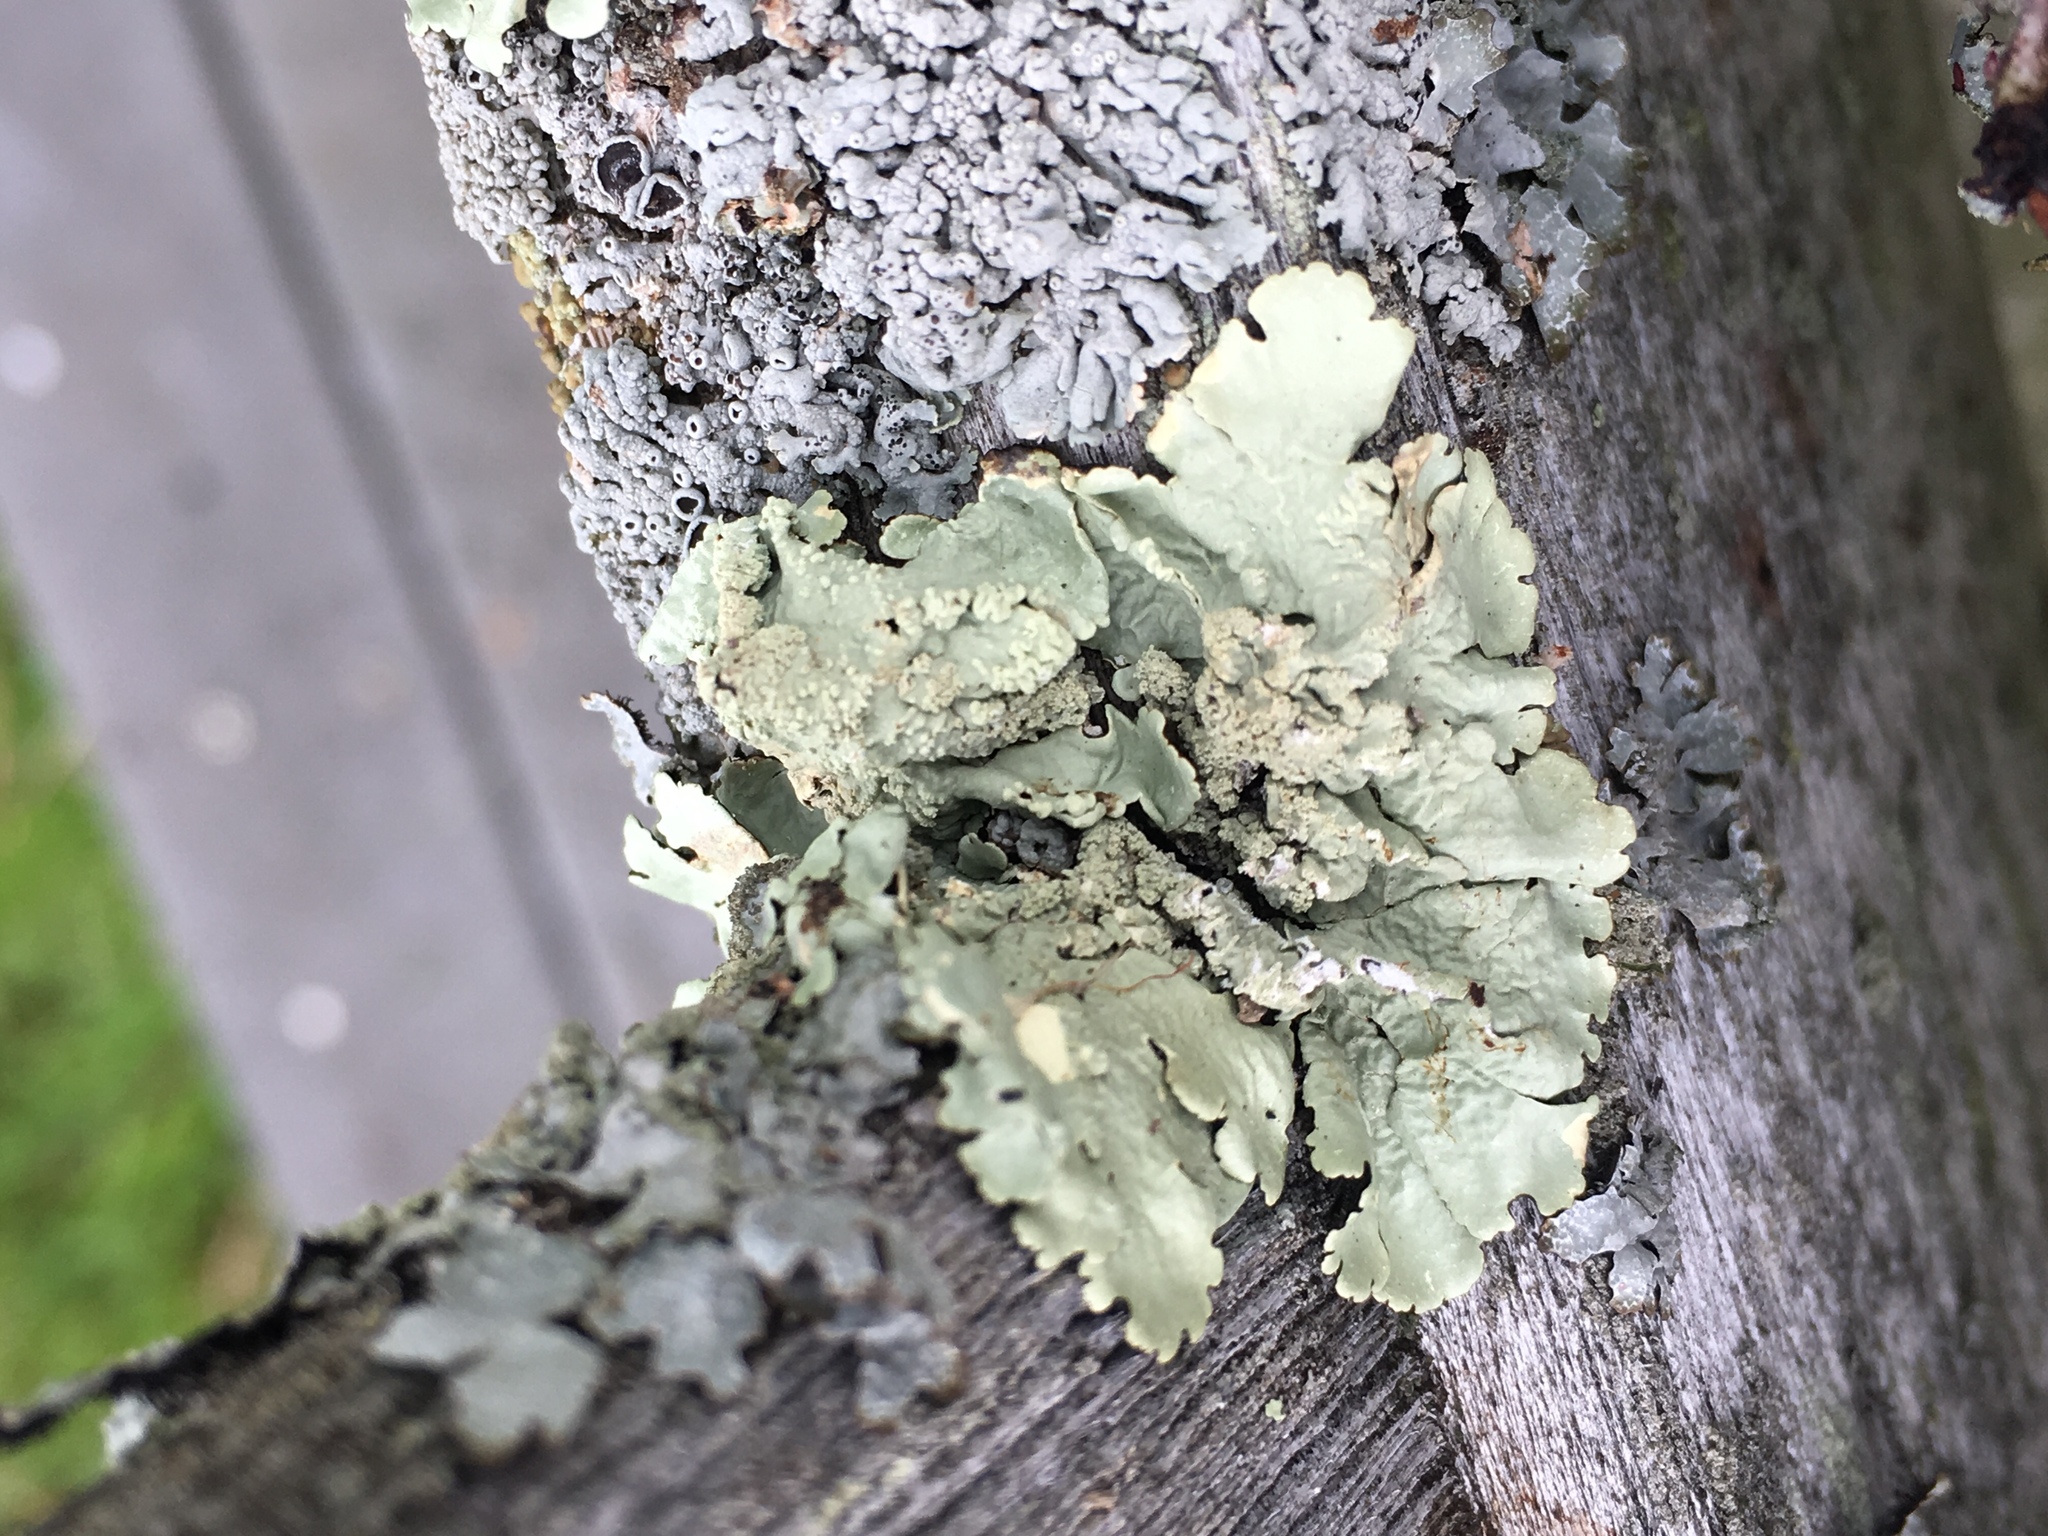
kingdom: Fungi
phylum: Ascomycota
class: Lecanoromycetes
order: Lecanorales
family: Parmeliaceae
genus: Flavoparmelia
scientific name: Flavoparmelia caperata
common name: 40-mile per hour lichen
